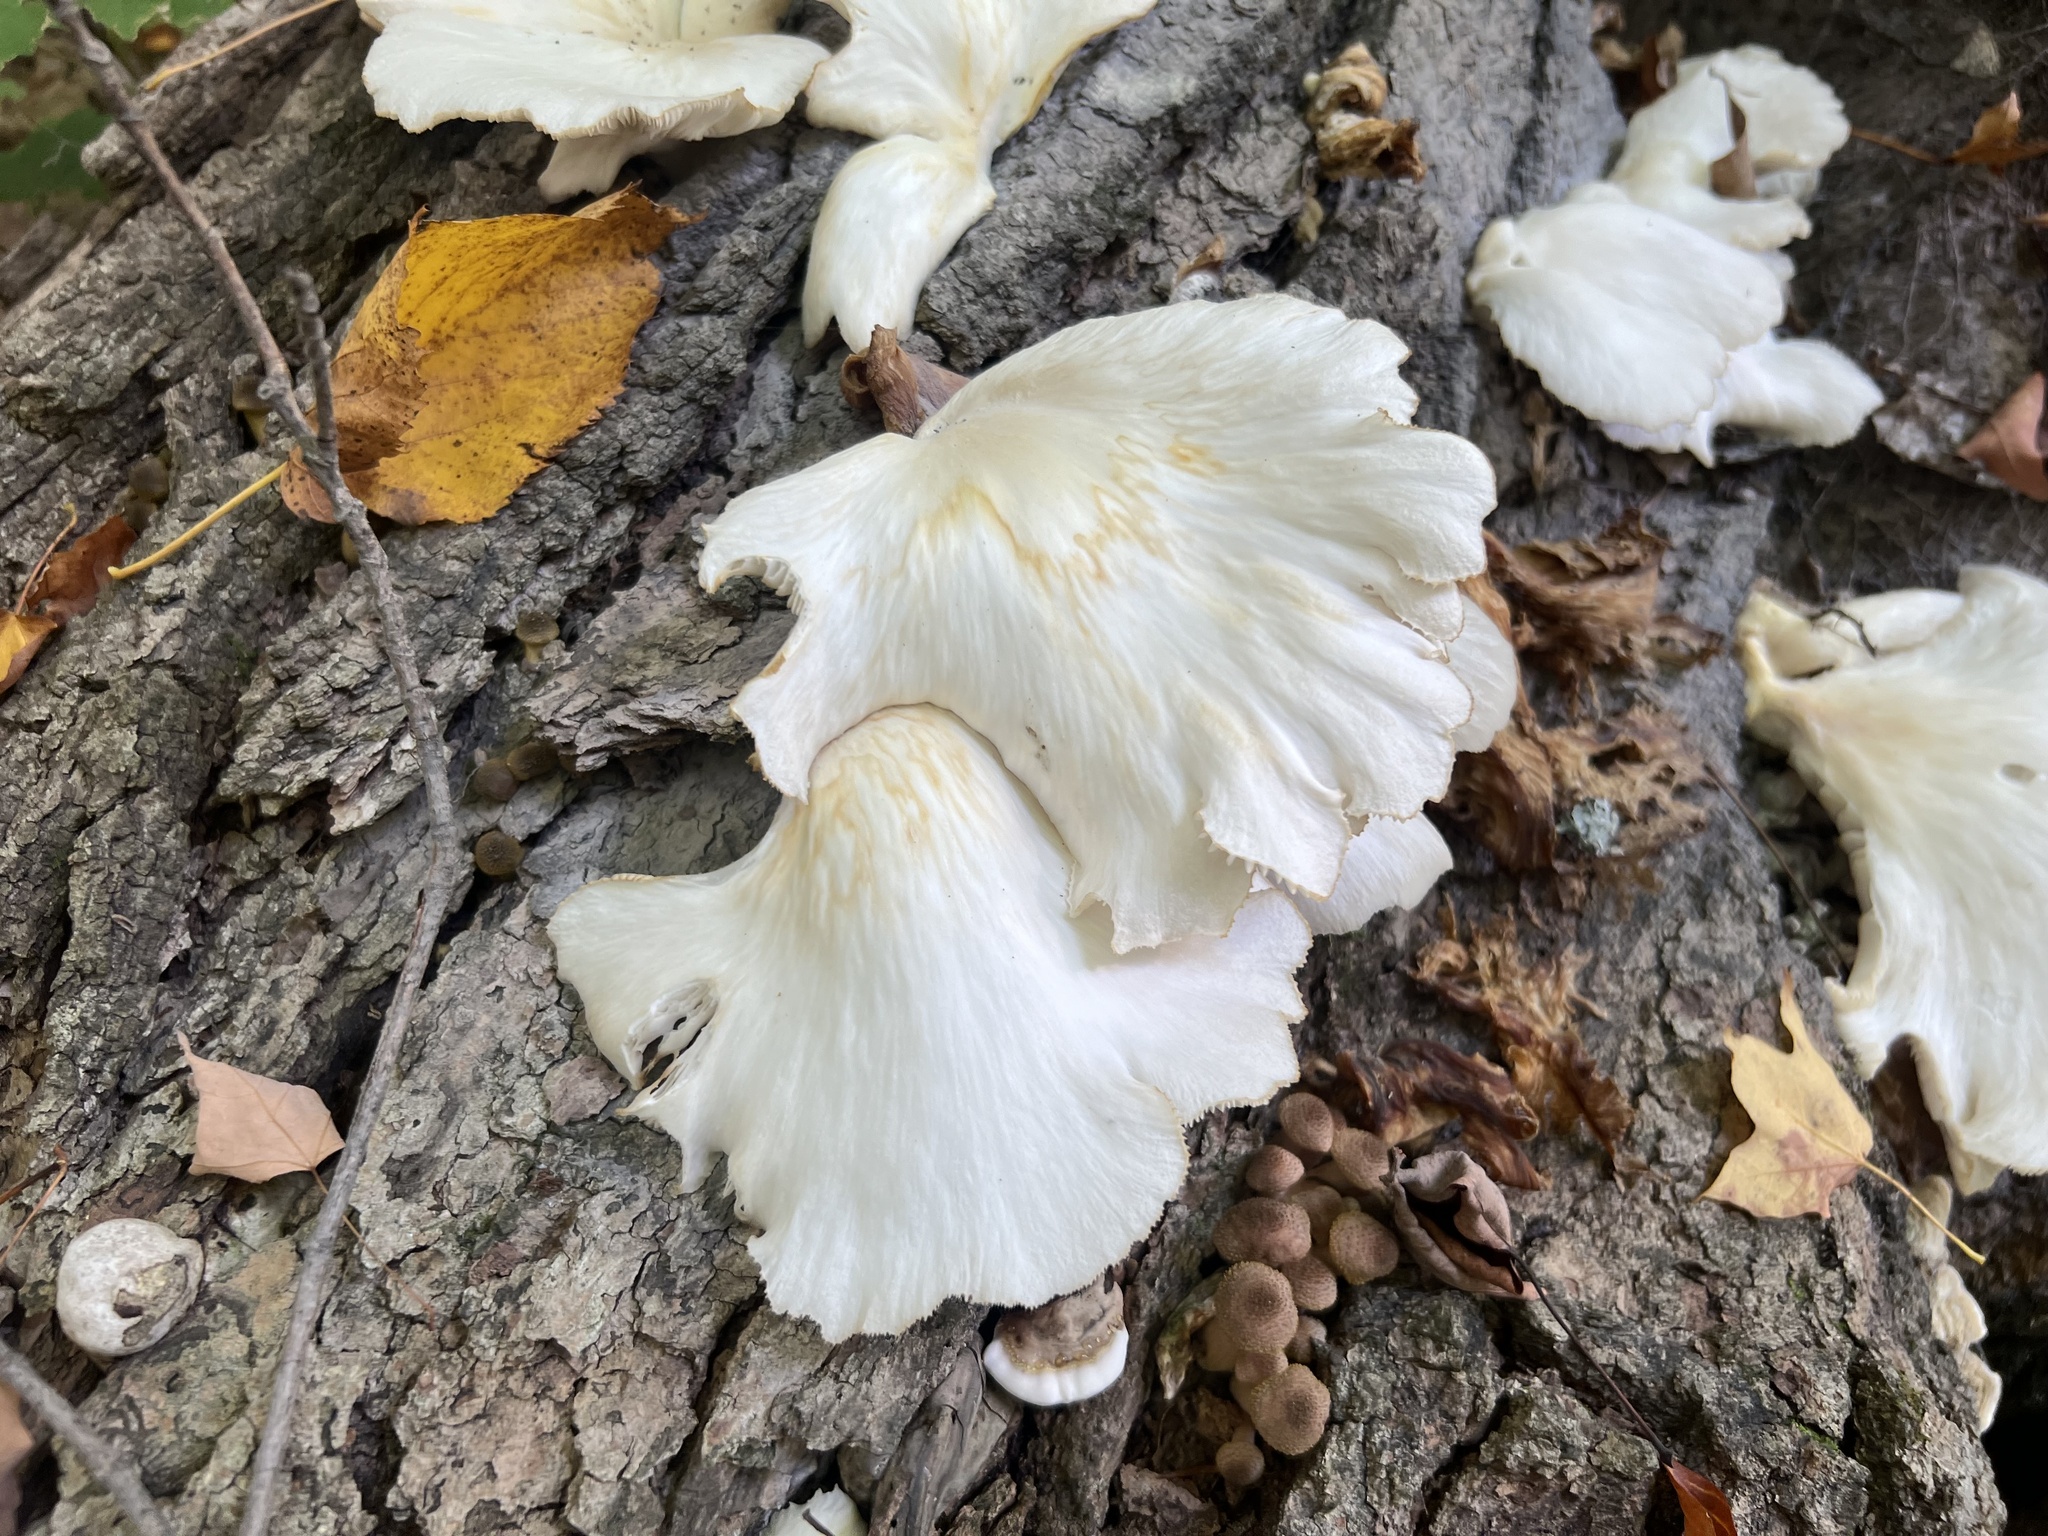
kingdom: Fungi
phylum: Basidiomycota
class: Agaricomycetes
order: Agaricales
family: Pleurotaceae
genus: Pleurotus
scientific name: Pleurotus pulmonarius
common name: Pale oyster
